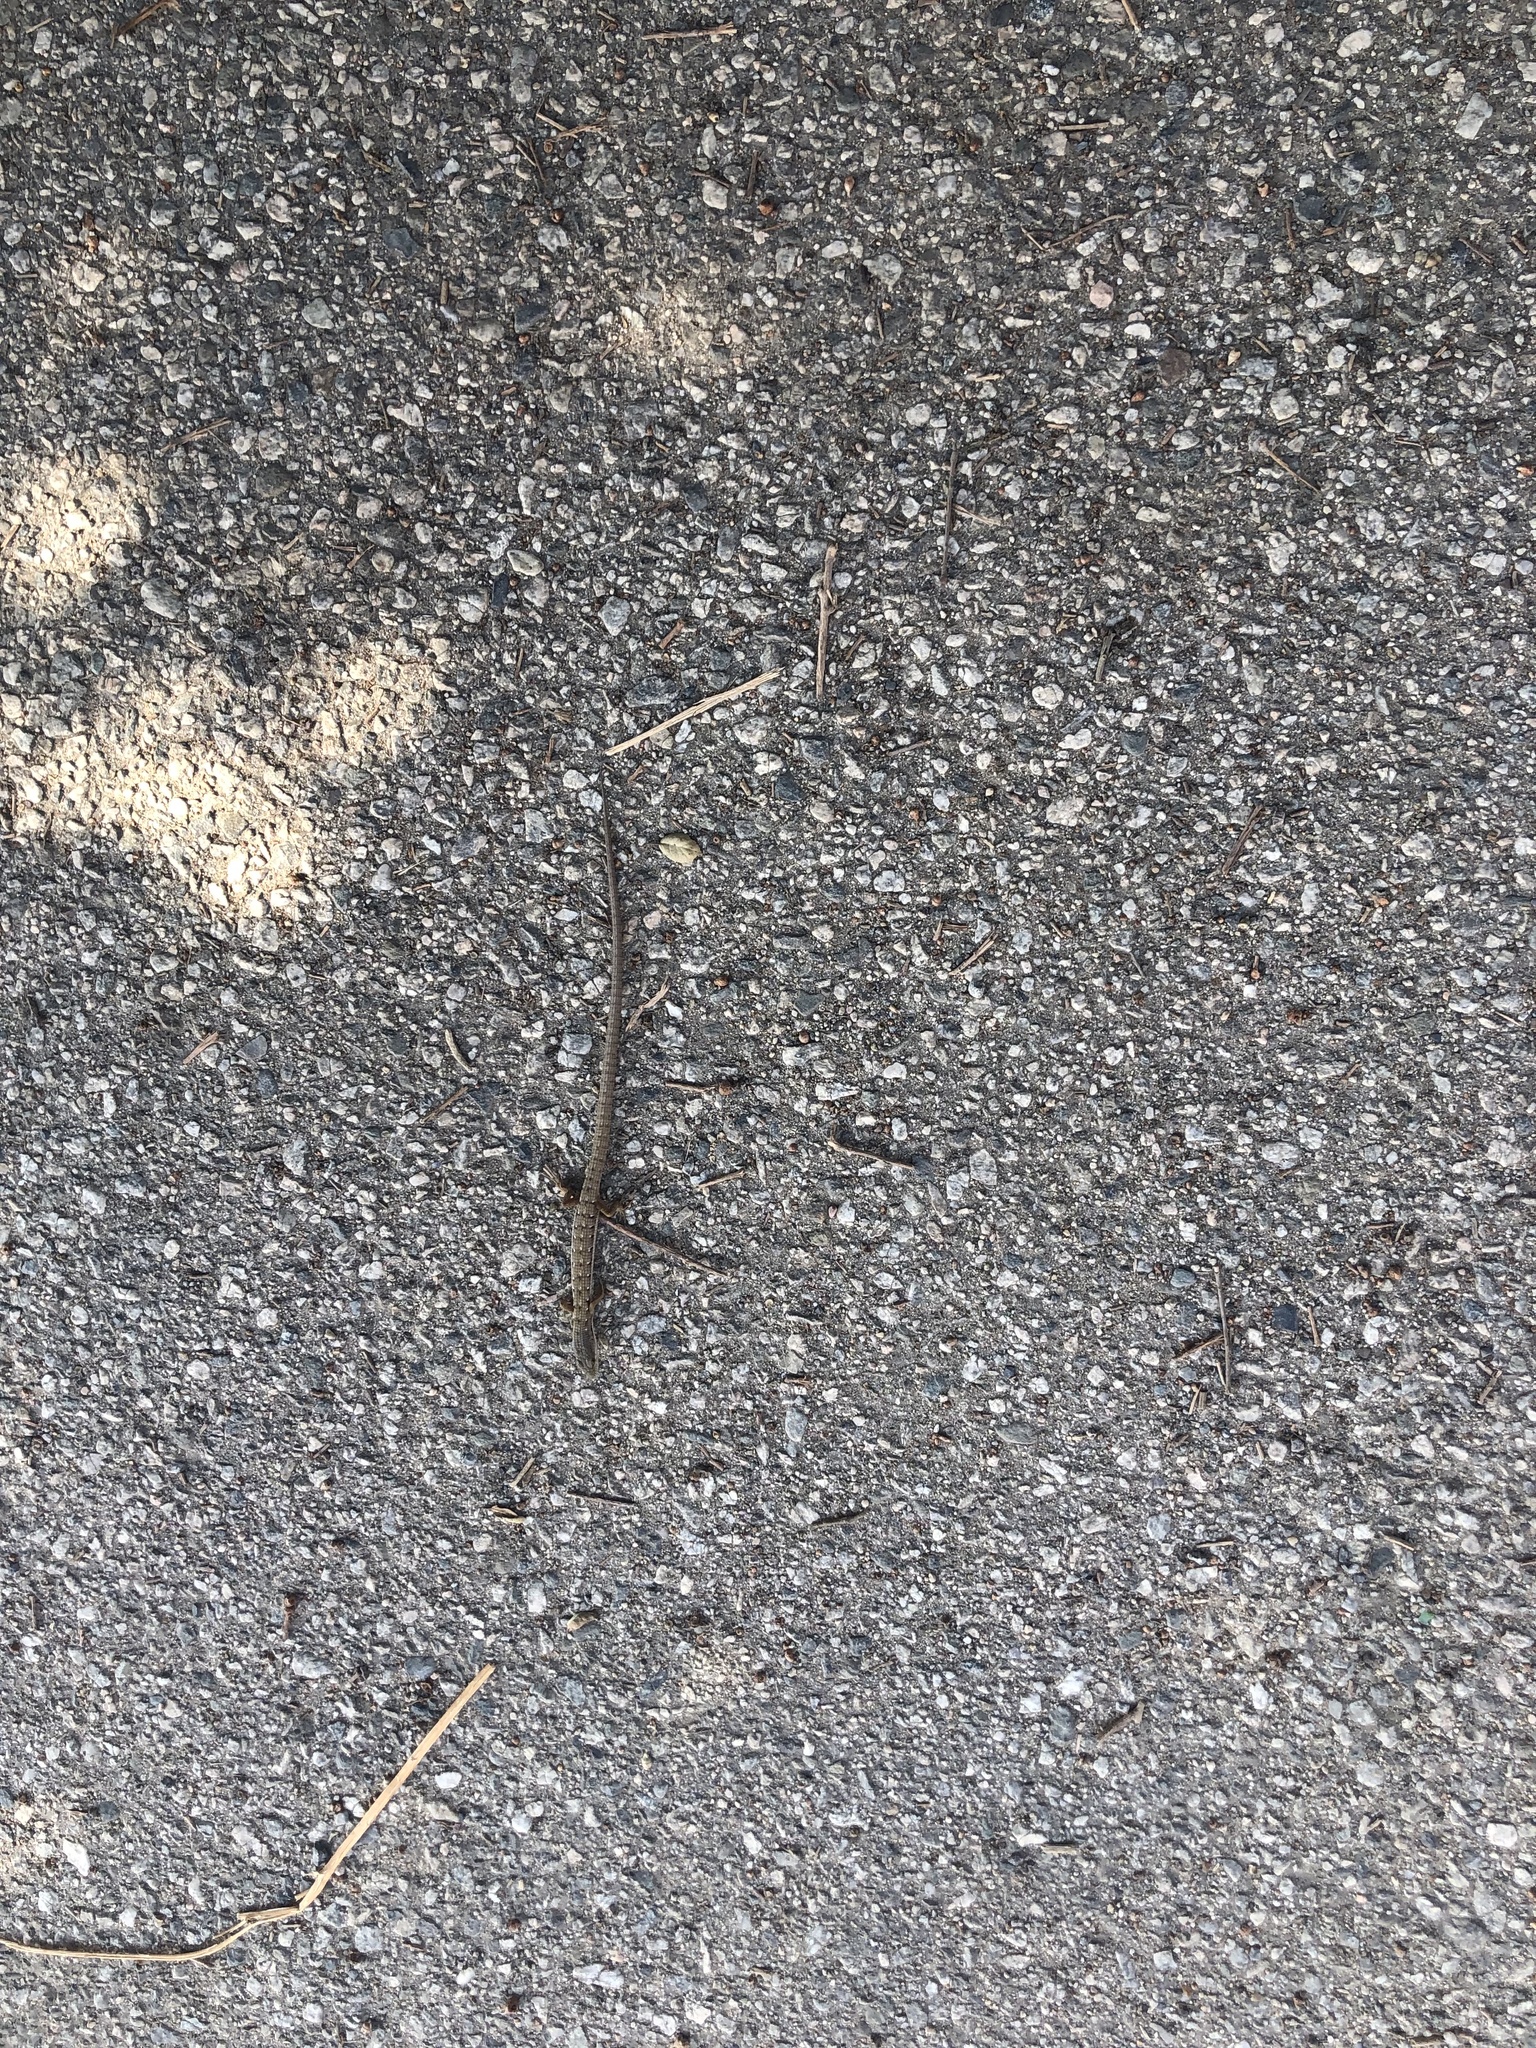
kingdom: Animalia
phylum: Chordata
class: Squamata
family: Anguidae
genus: Elgaria
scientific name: Elgaria multicarinata
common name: Southern alligator lizard
